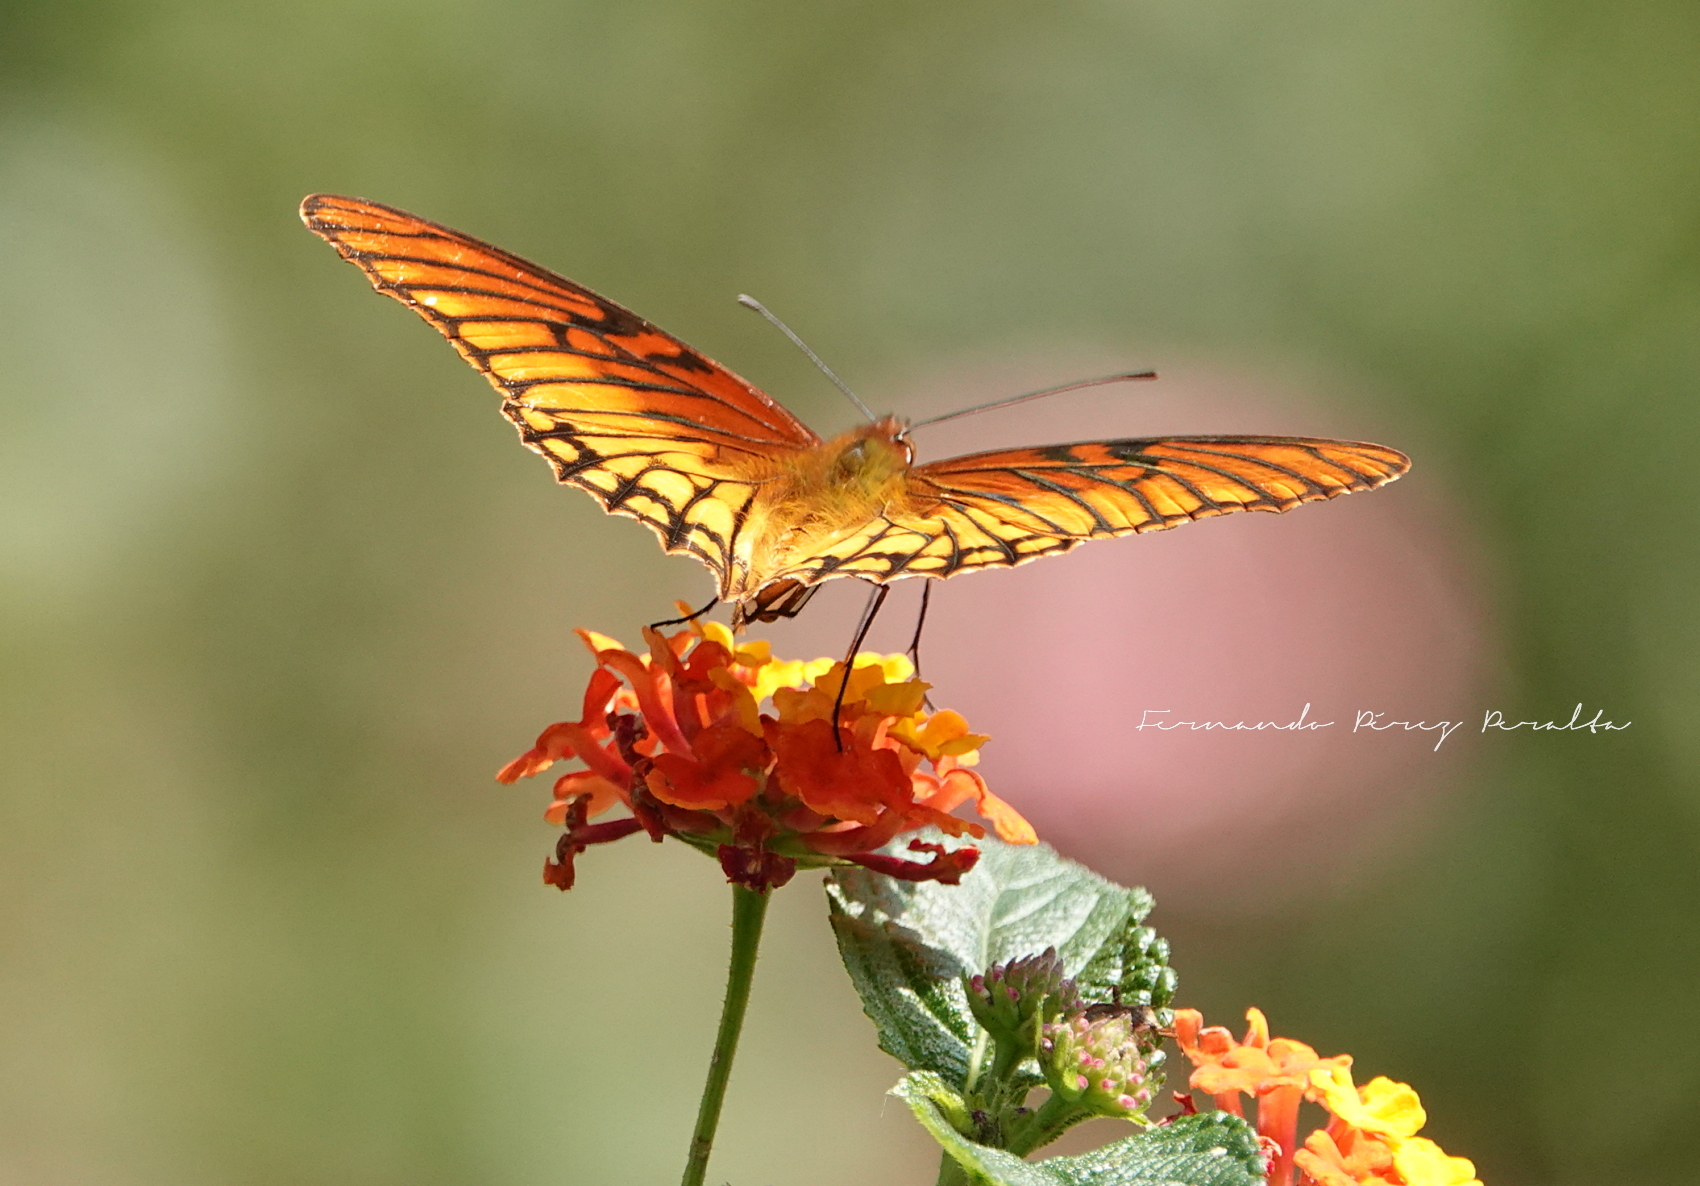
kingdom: Animalia
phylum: Arthropoda
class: Insecta
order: Lepidoptera
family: Nymphalidae
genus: Dione
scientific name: Dione moneta
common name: Mexican silverspot
